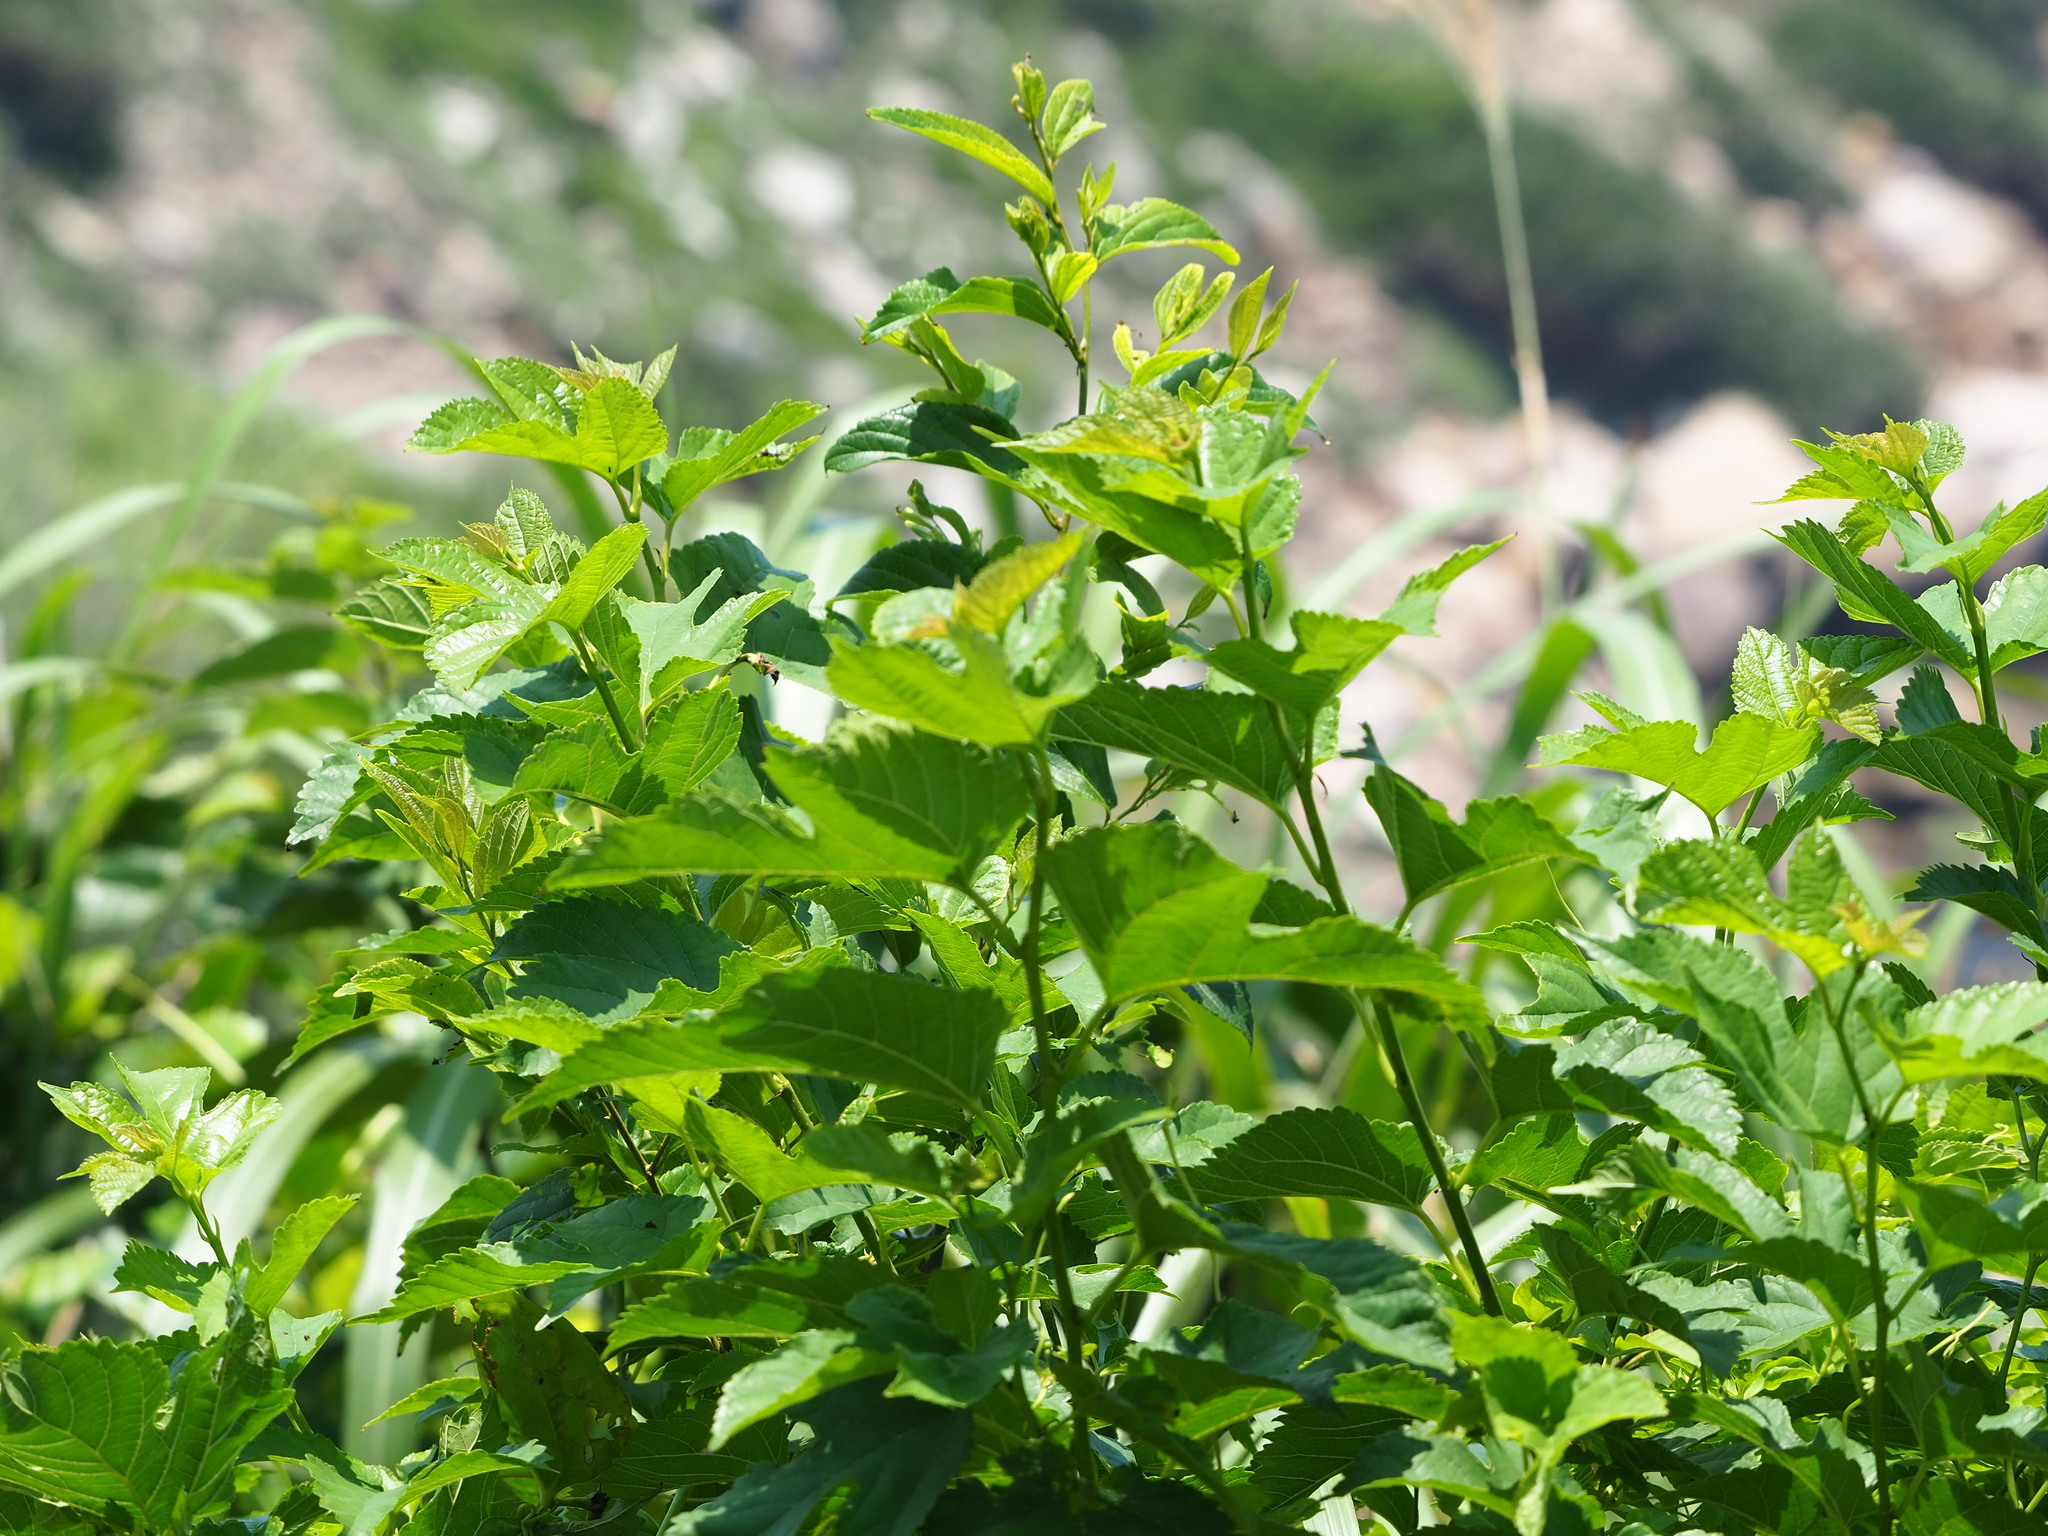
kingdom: Plantae
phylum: Tracheophyta
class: Magnoliopsida
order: Rosales
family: Moraceae
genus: Morus
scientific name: Morus indica
